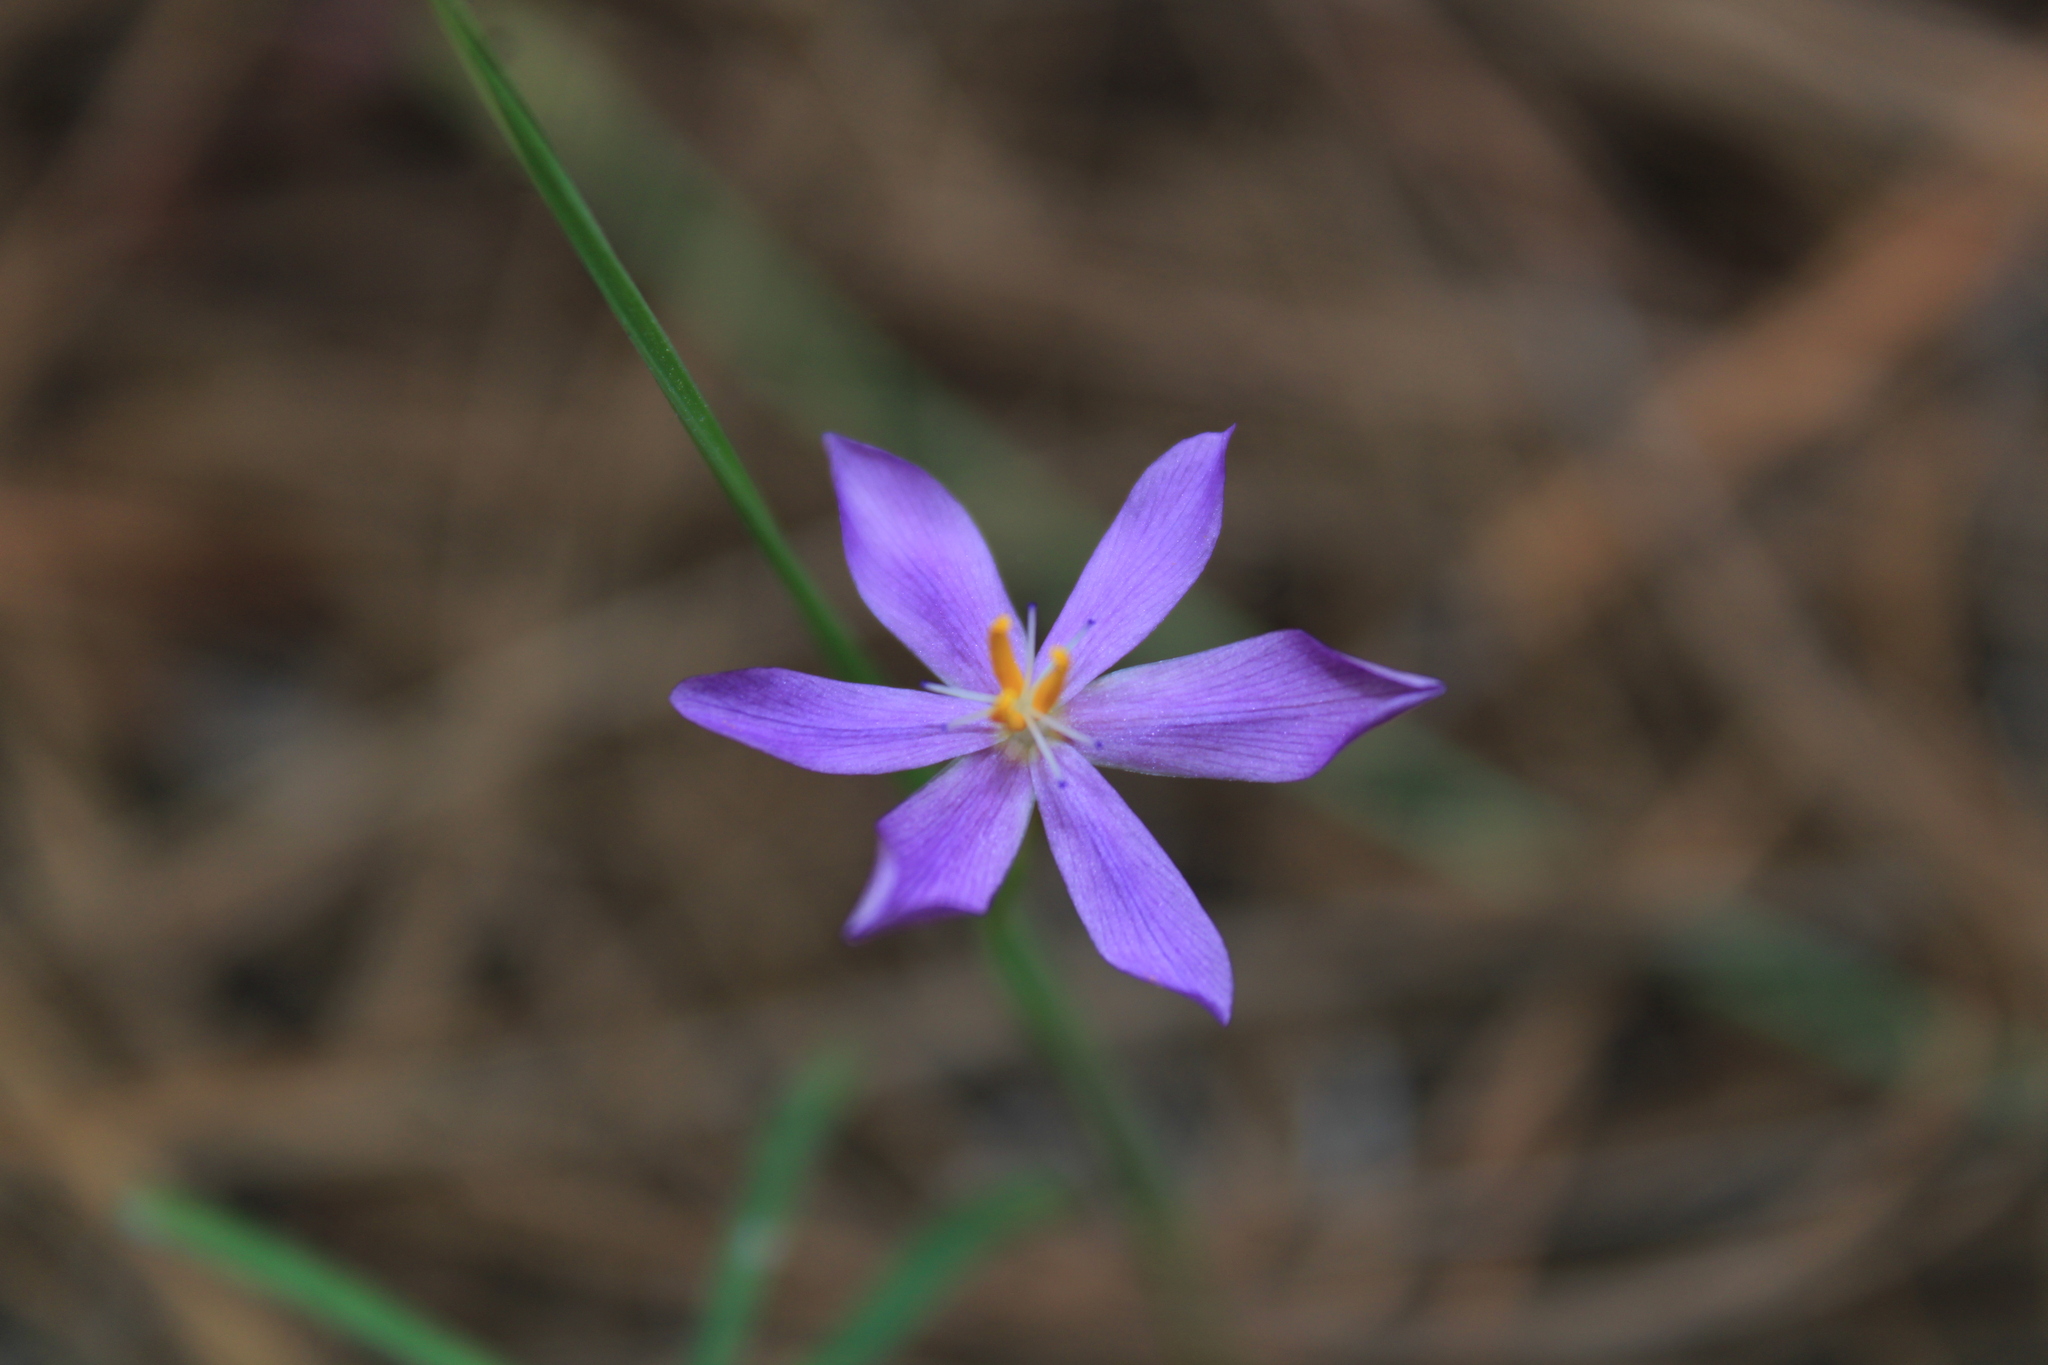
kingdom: Plantae
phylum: Tracheophyta
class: Liliopsida
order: Asparagales
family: Iridaceae
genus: Nemastylis
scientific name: Nemastylis tenuis
